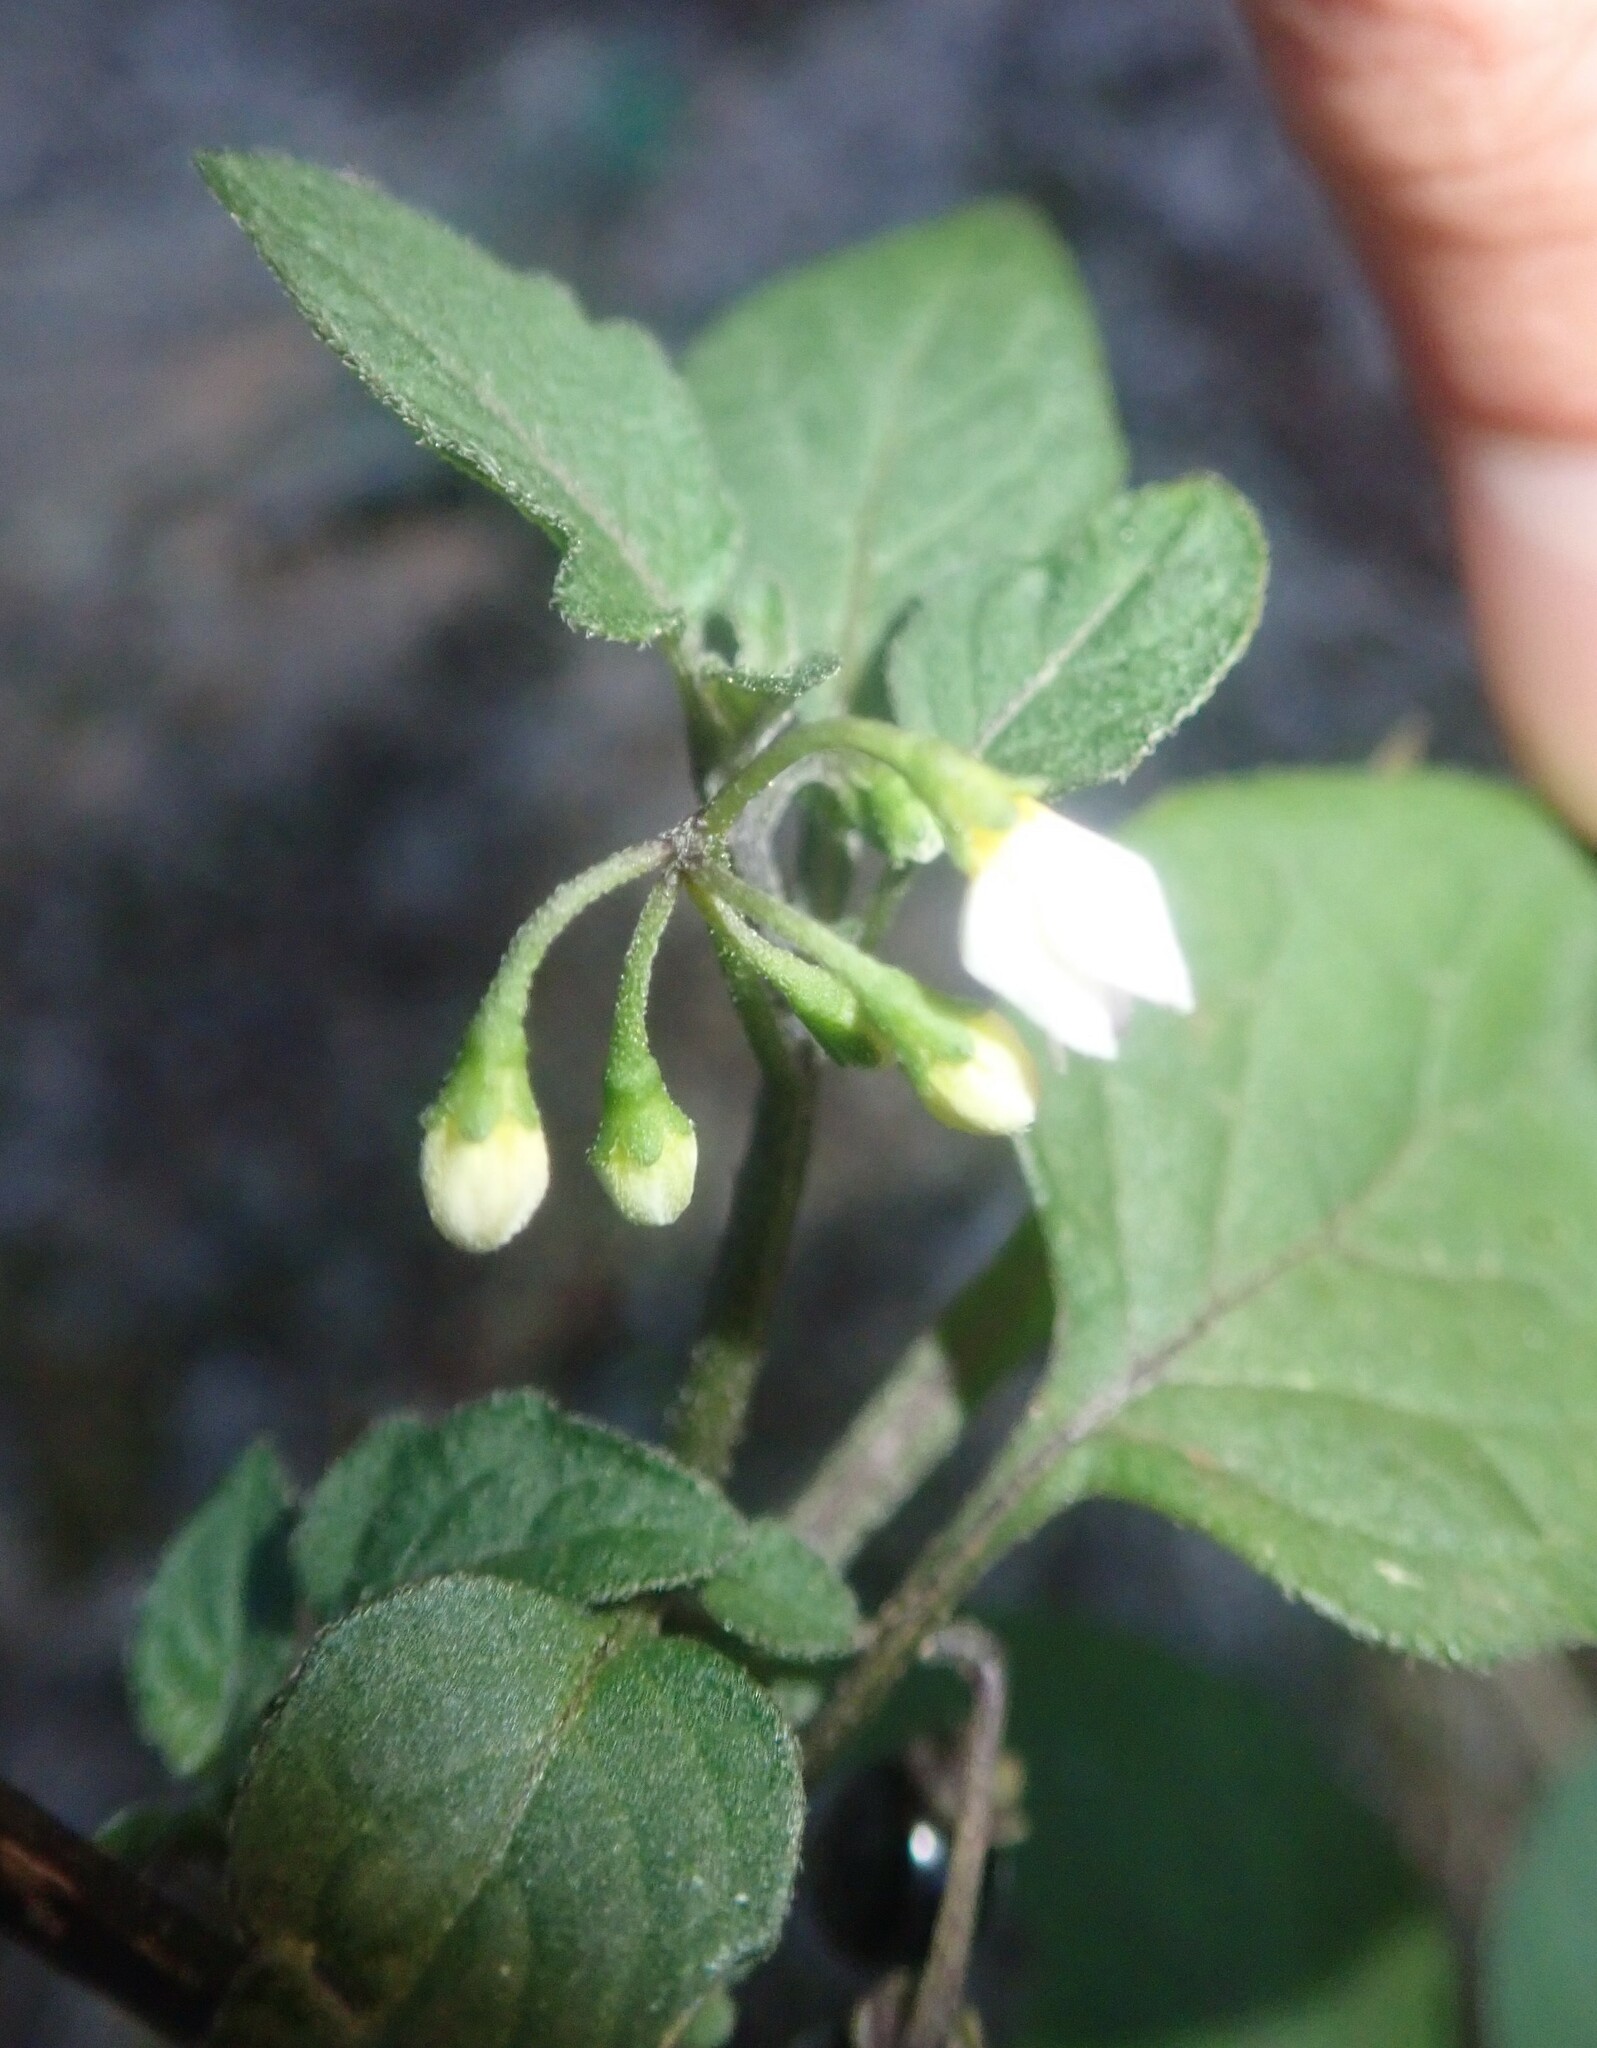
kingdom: Plantae
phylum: Tracheophyta
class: Magnoliopsida
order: Solanales
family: Solanaceae
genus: Solanum
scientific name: Solanum nigrum
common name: Black nightshade
